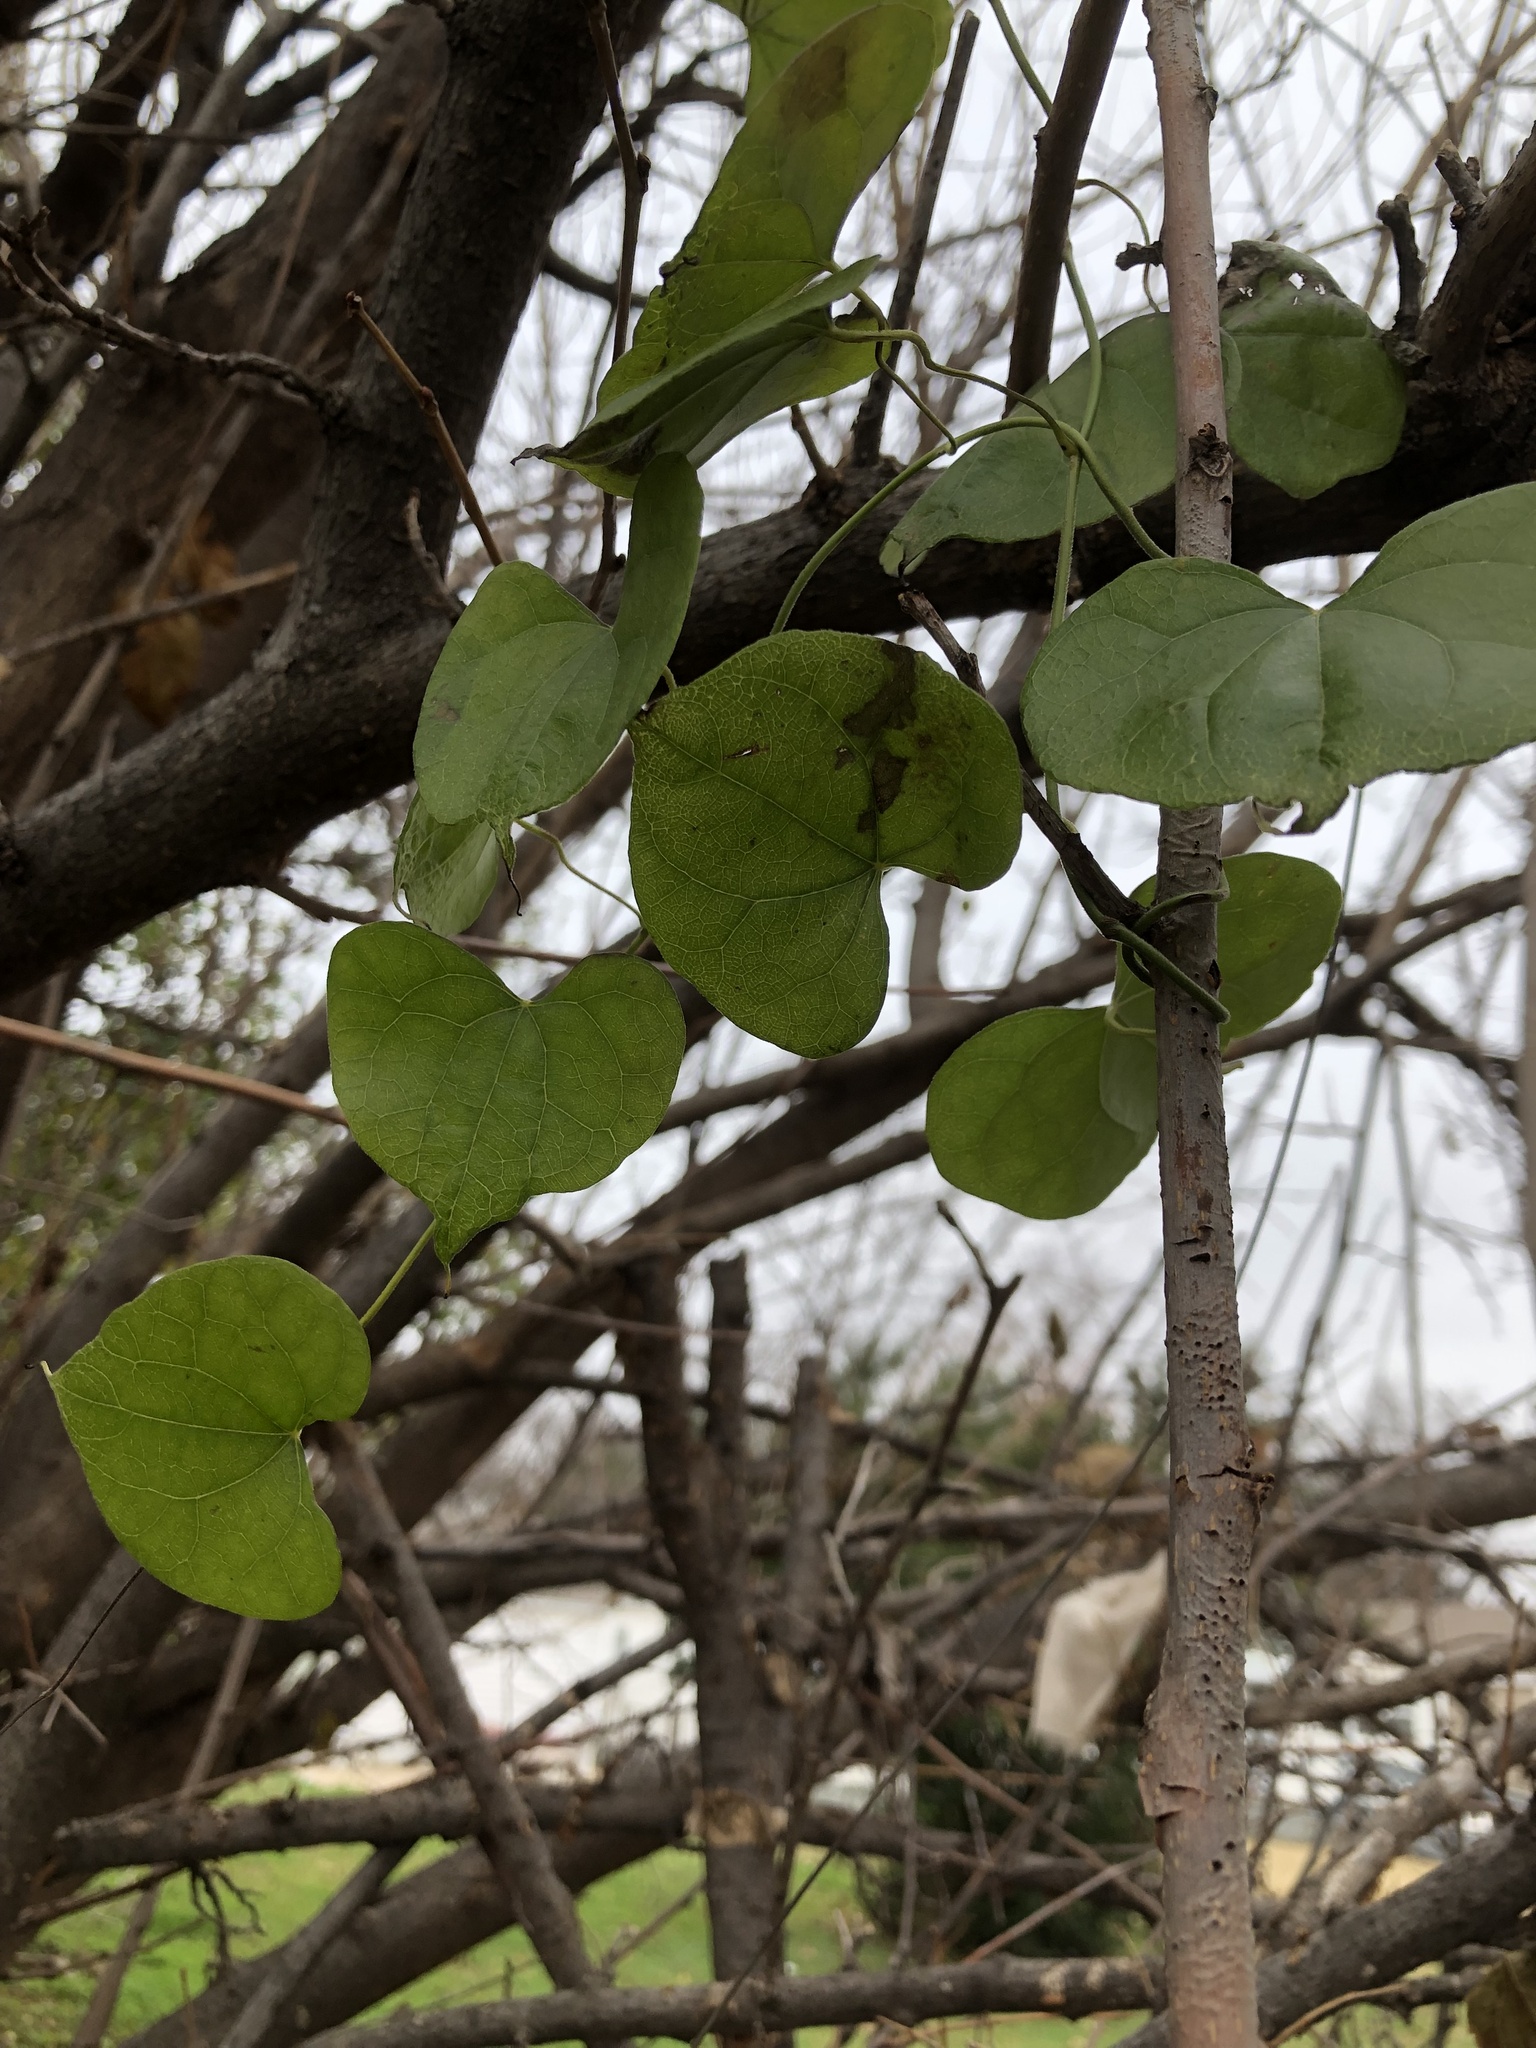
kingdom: Plantae
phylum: Tracheophyta
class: Magnoliopsida
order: Ranunculales
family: Menispermaceae
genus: Cocculus
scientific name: Cocculus carolinus
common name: Carolina moonseed
